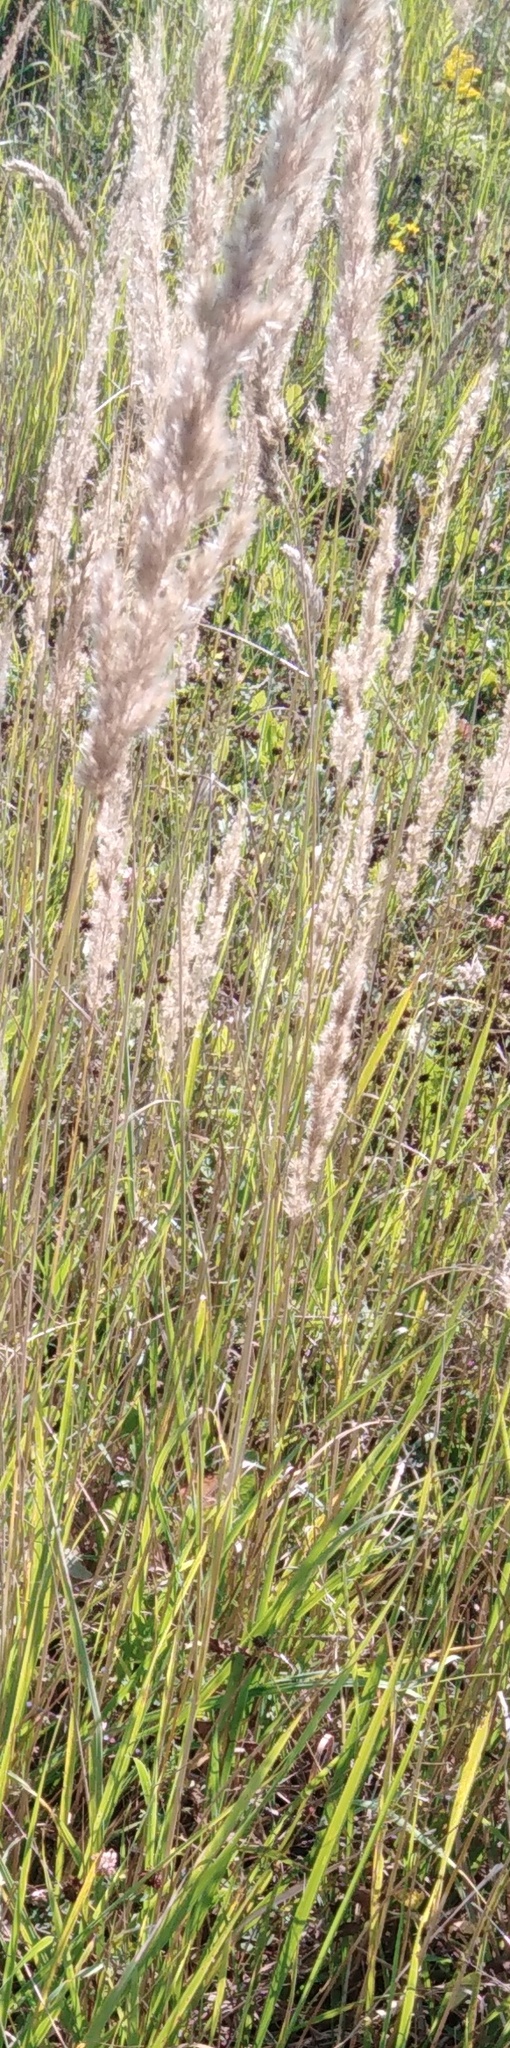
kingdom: Plantae
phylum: Tracheophyta
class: Liliopsida
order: Poales
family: Poaceae
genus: Calamagrostis
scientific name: Calamagrostis epigejos
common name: Wood small-reed
